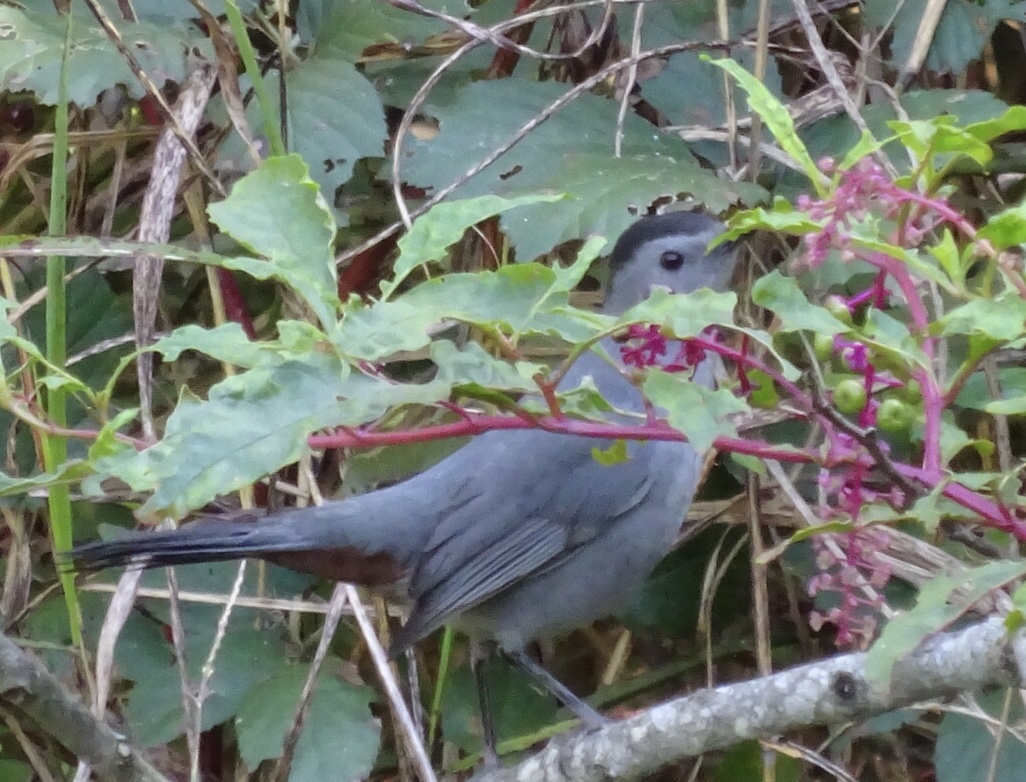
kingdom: Animalia
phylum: Chordata
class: Aves
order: Passeriformes
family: Mimidae
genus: Dumetella
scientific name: Dumetella carolinensis
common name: Gray catbird
